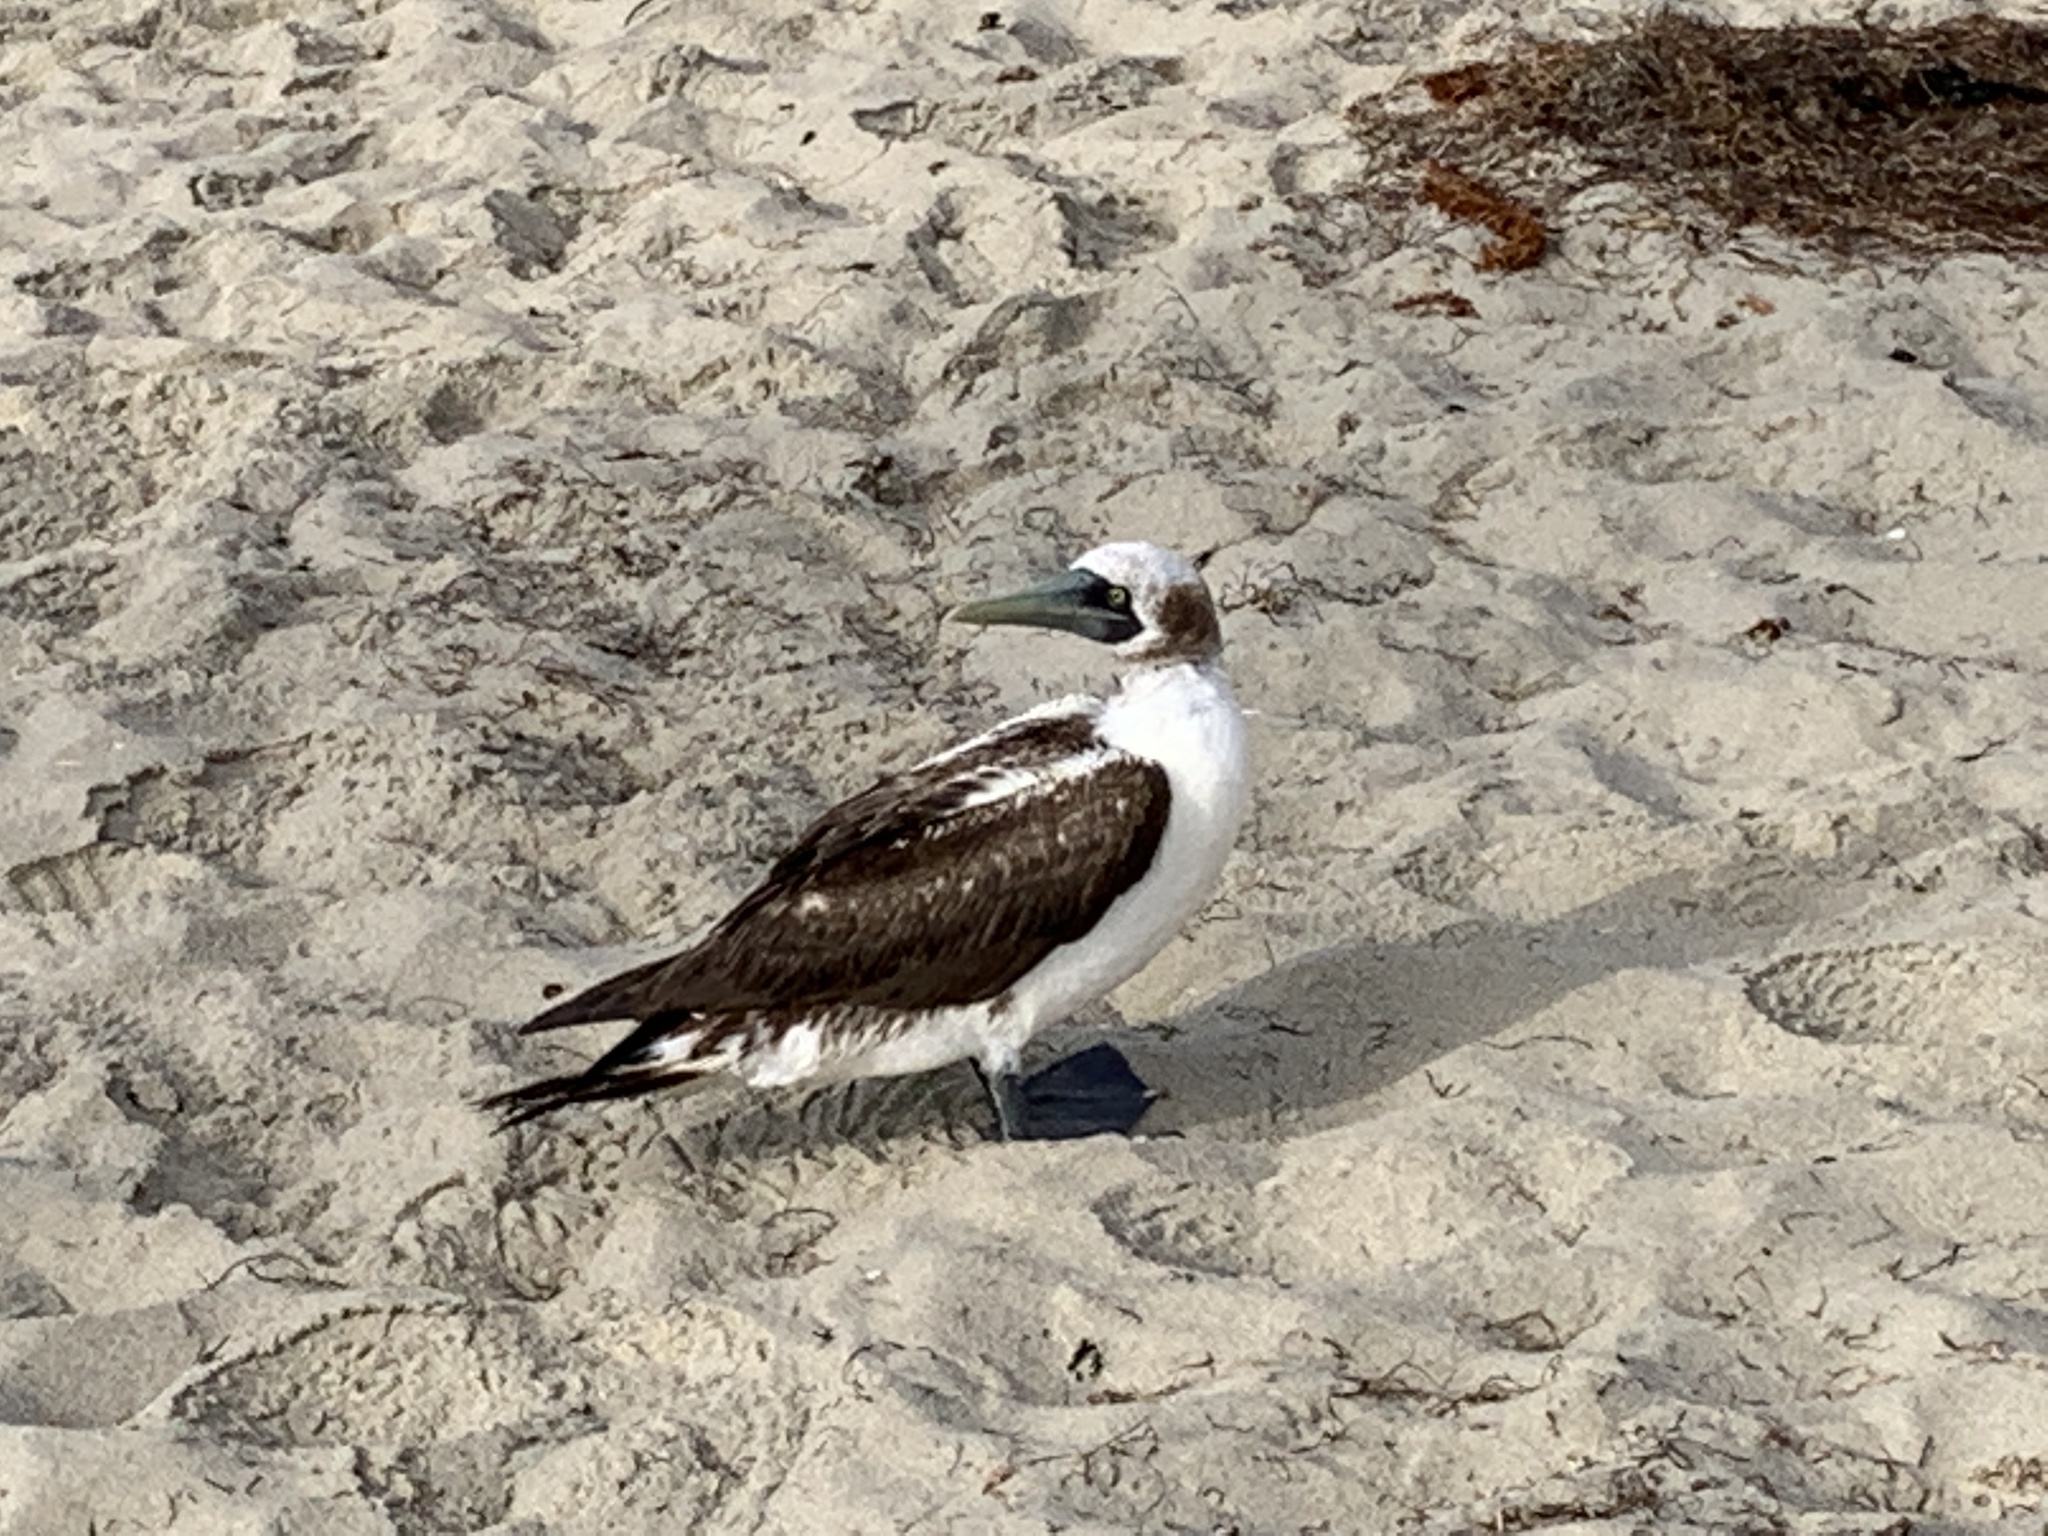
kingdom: Animalia
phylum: Chordata
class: Aves
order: Suliformes
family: Sulidae
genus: Sula
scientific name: Sula dactylatra
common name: Masked booby
